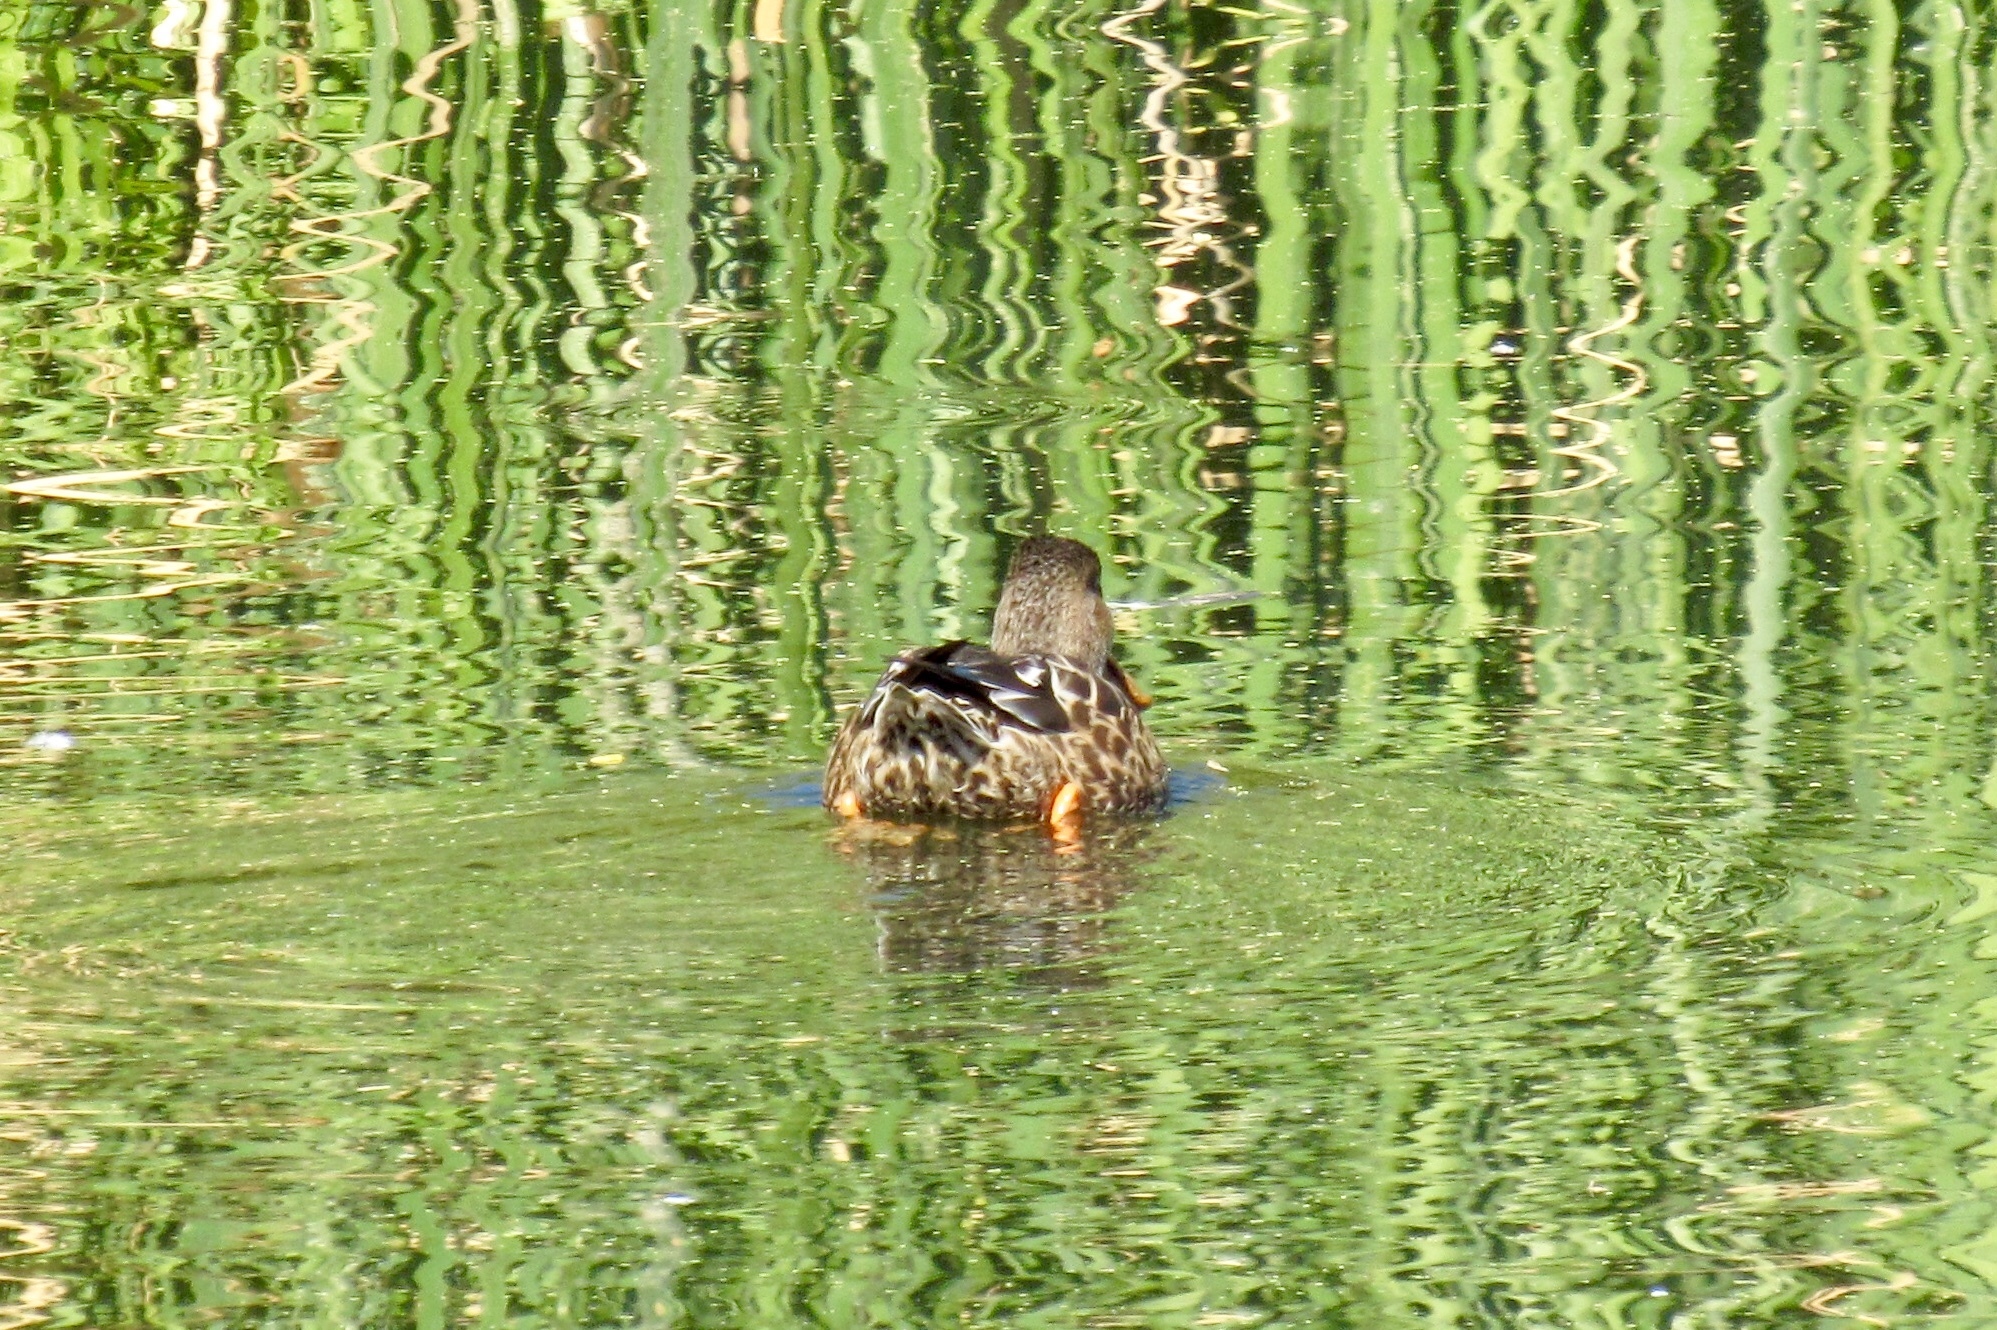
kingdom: Animalia
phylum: Chordata
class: Aves
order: Anseriformes
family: Anatidae
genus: Spatula
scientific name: Spatula clypeata
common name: Northern shoveler
